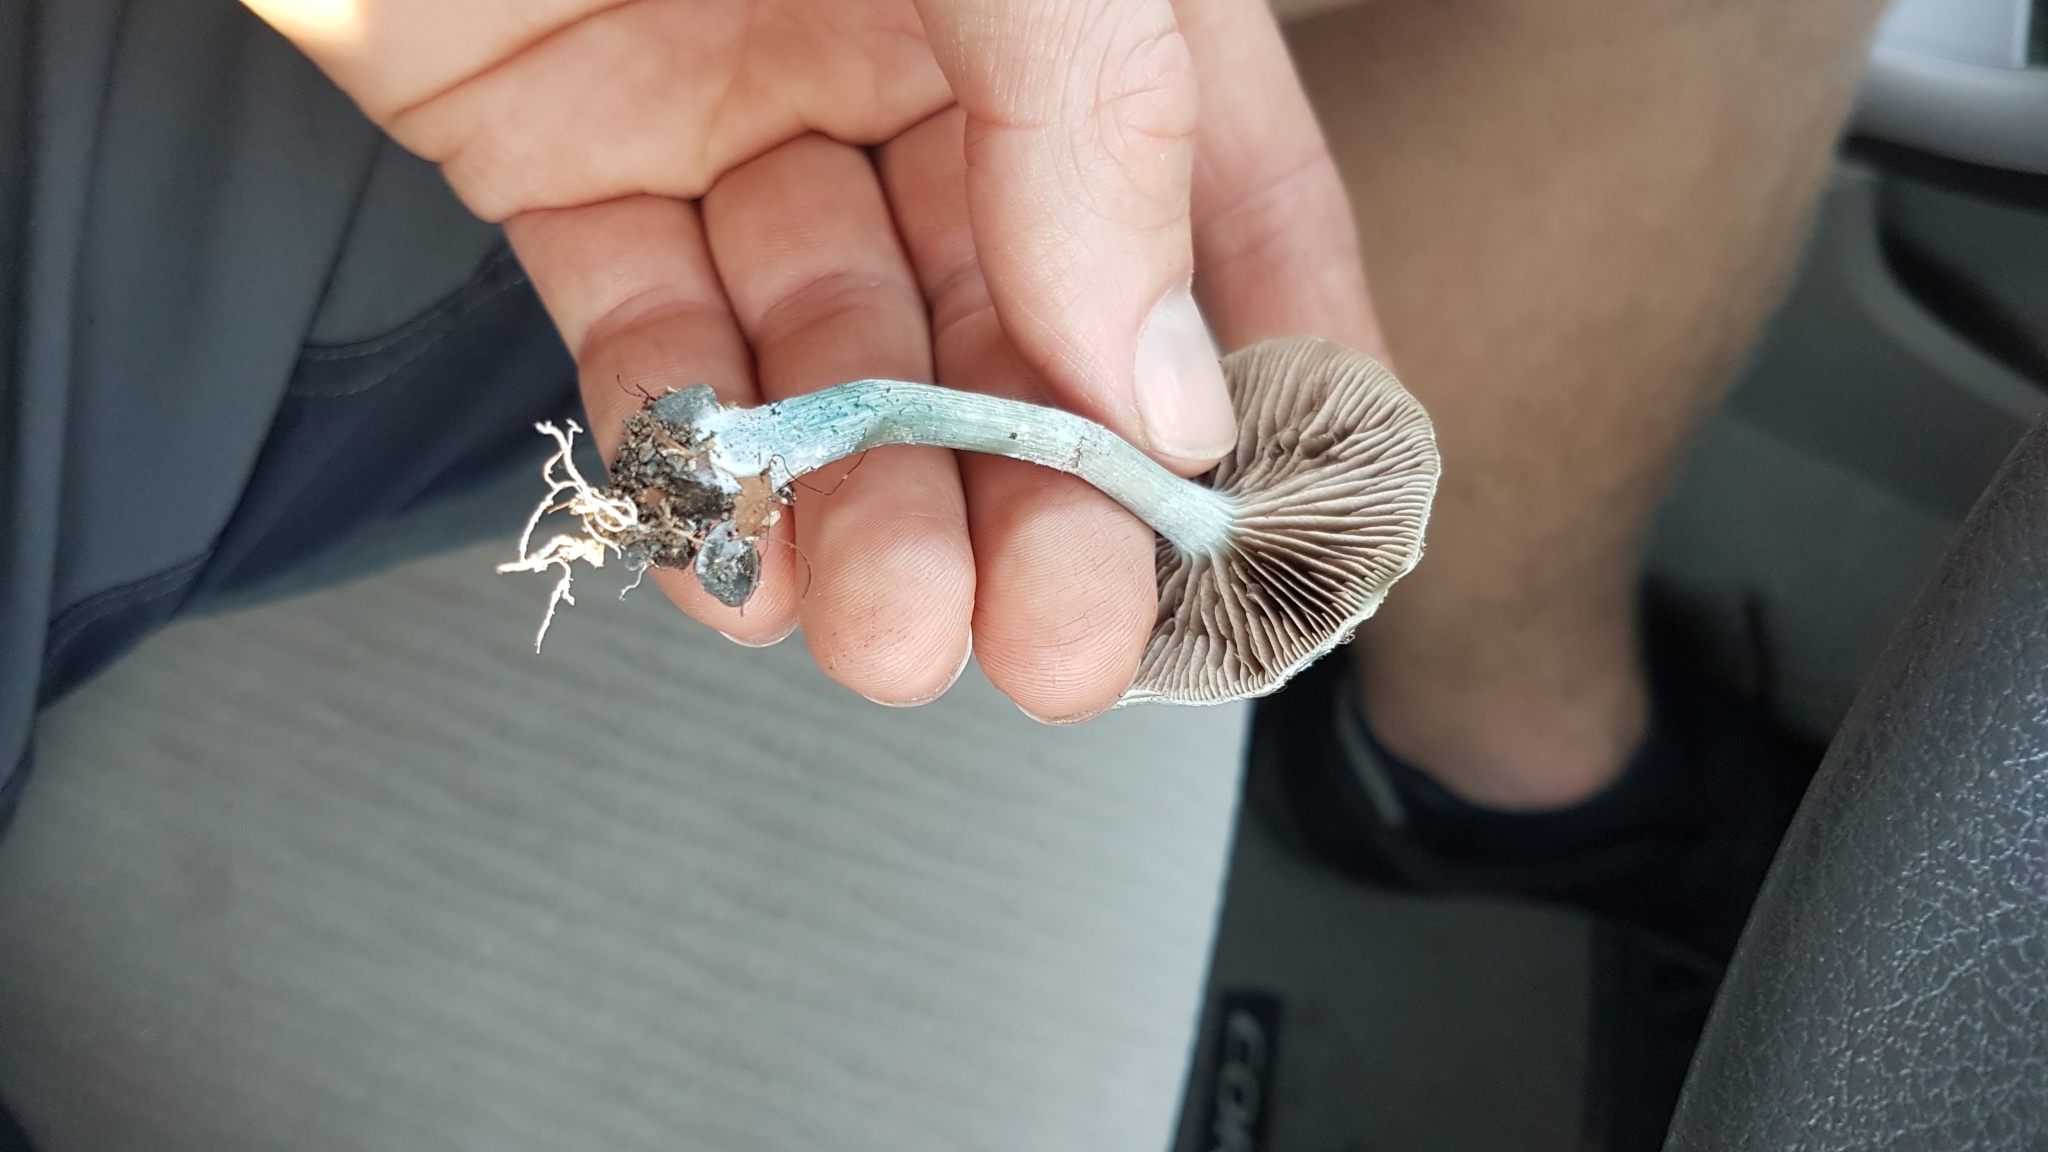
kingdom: Fungi
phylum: Basidiomycota
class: Agaricomycetes
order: Agaricales
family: Strophariaceae
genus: Stropharia
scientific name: Stropharia caerulea
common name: Blue roundhead
